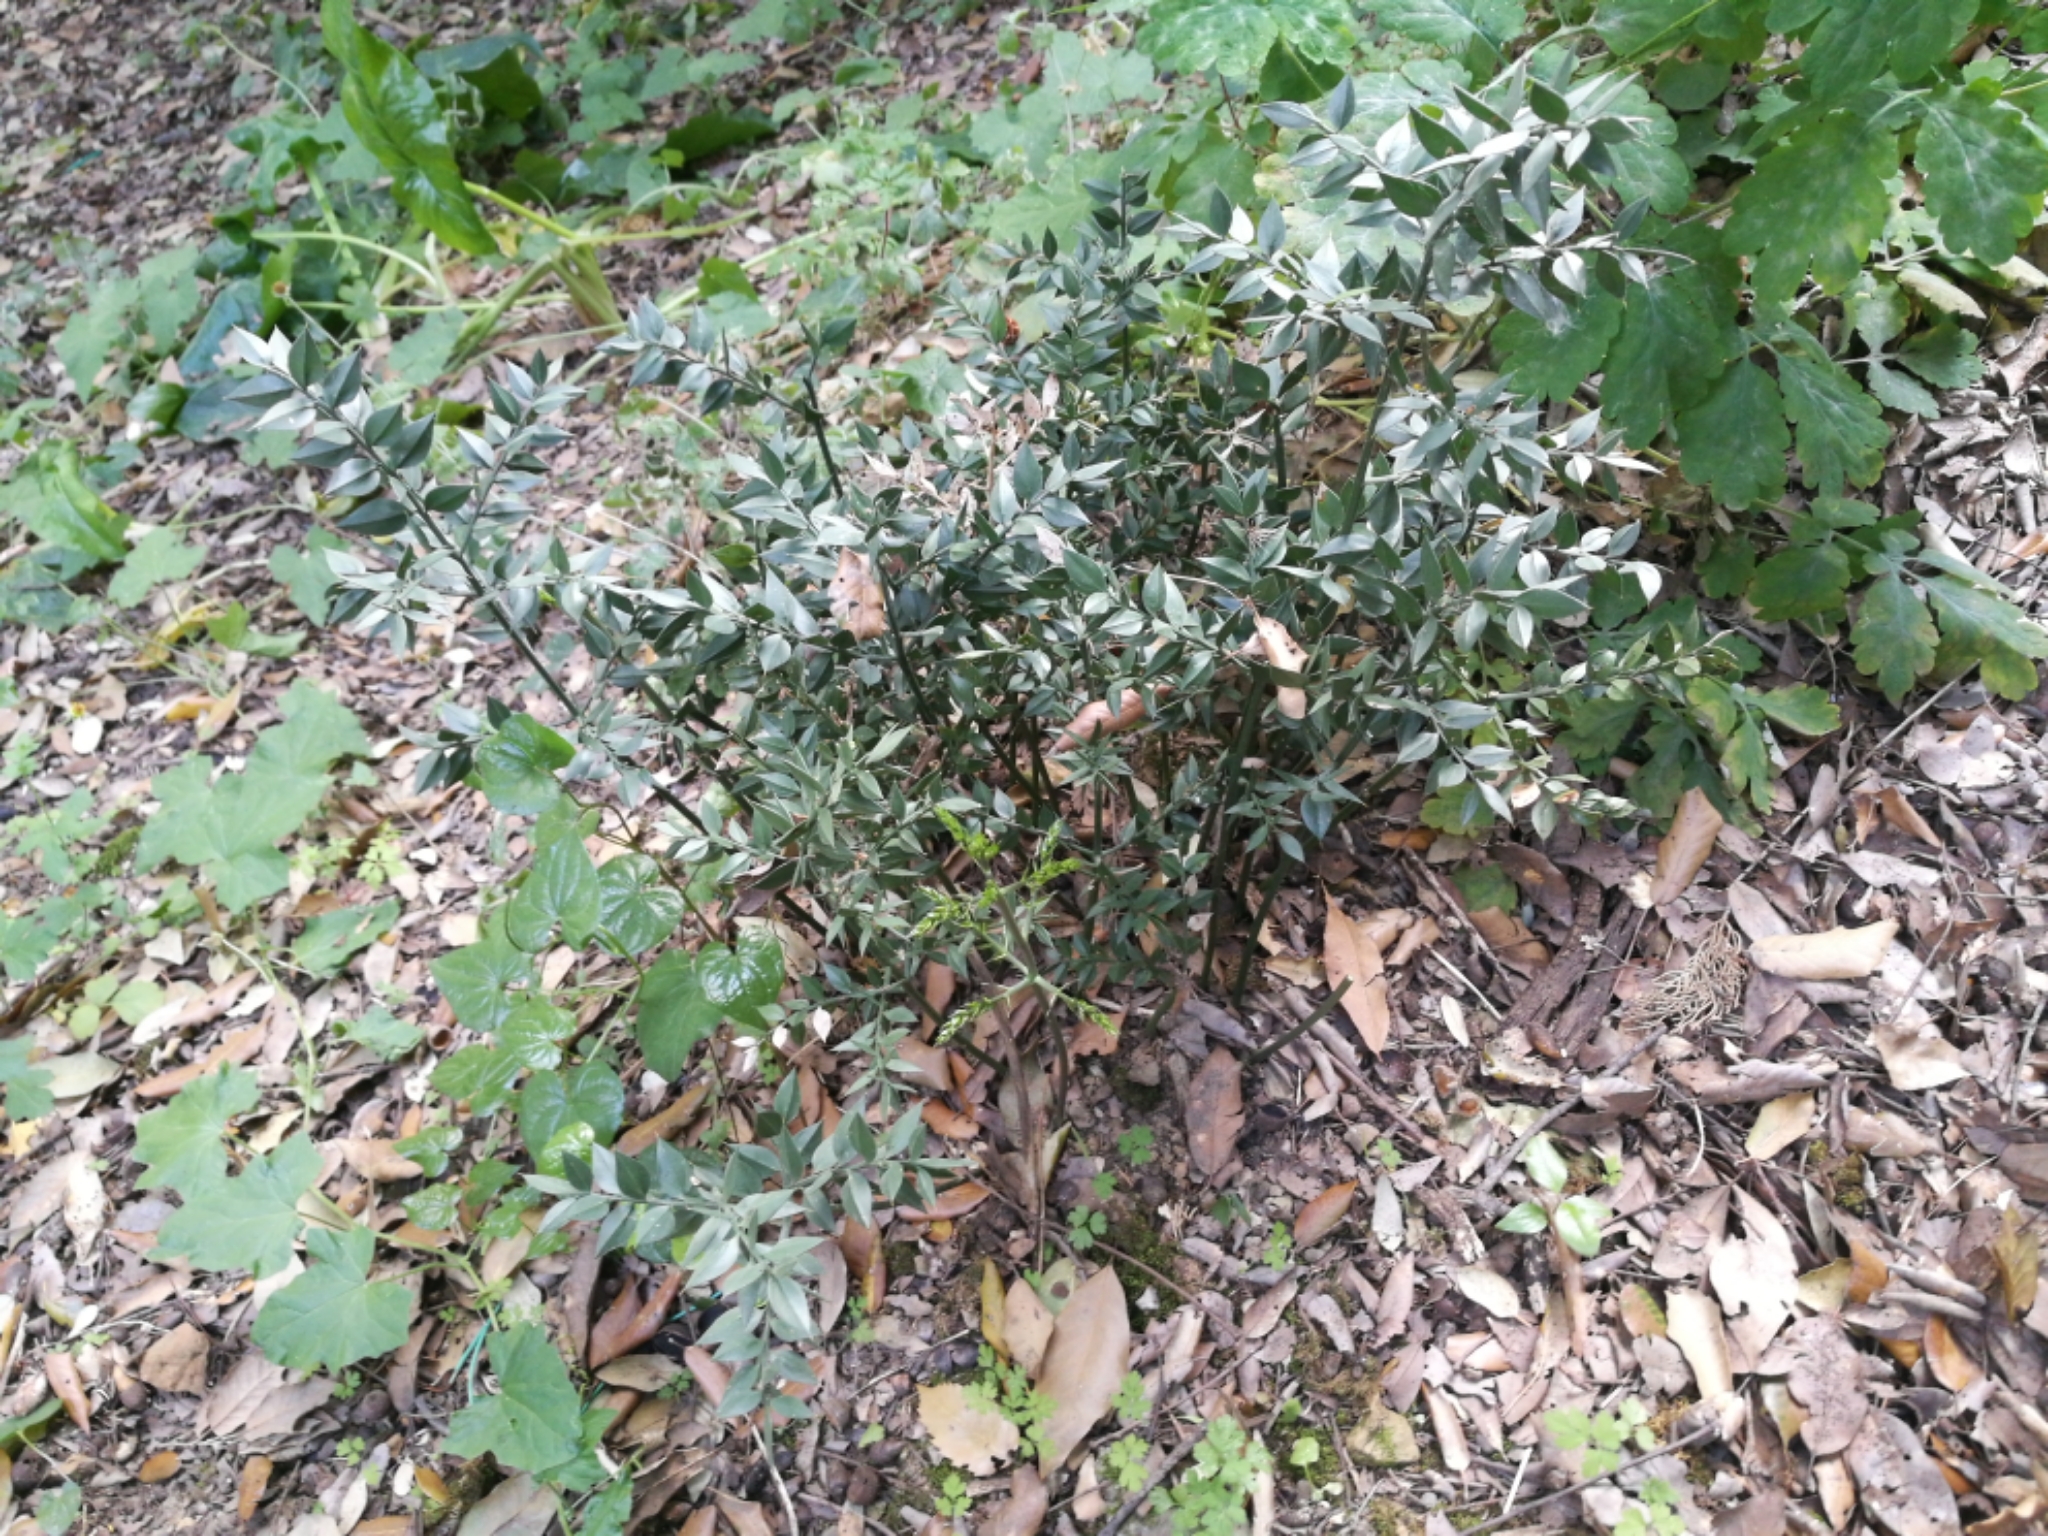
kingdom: Plantae
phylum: Tracheophyta
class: Liliopsida
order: Asparagales
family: Asparagaceae
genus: Ruscus
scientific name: Ruscus aculeatus
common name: Butcher's-broom
